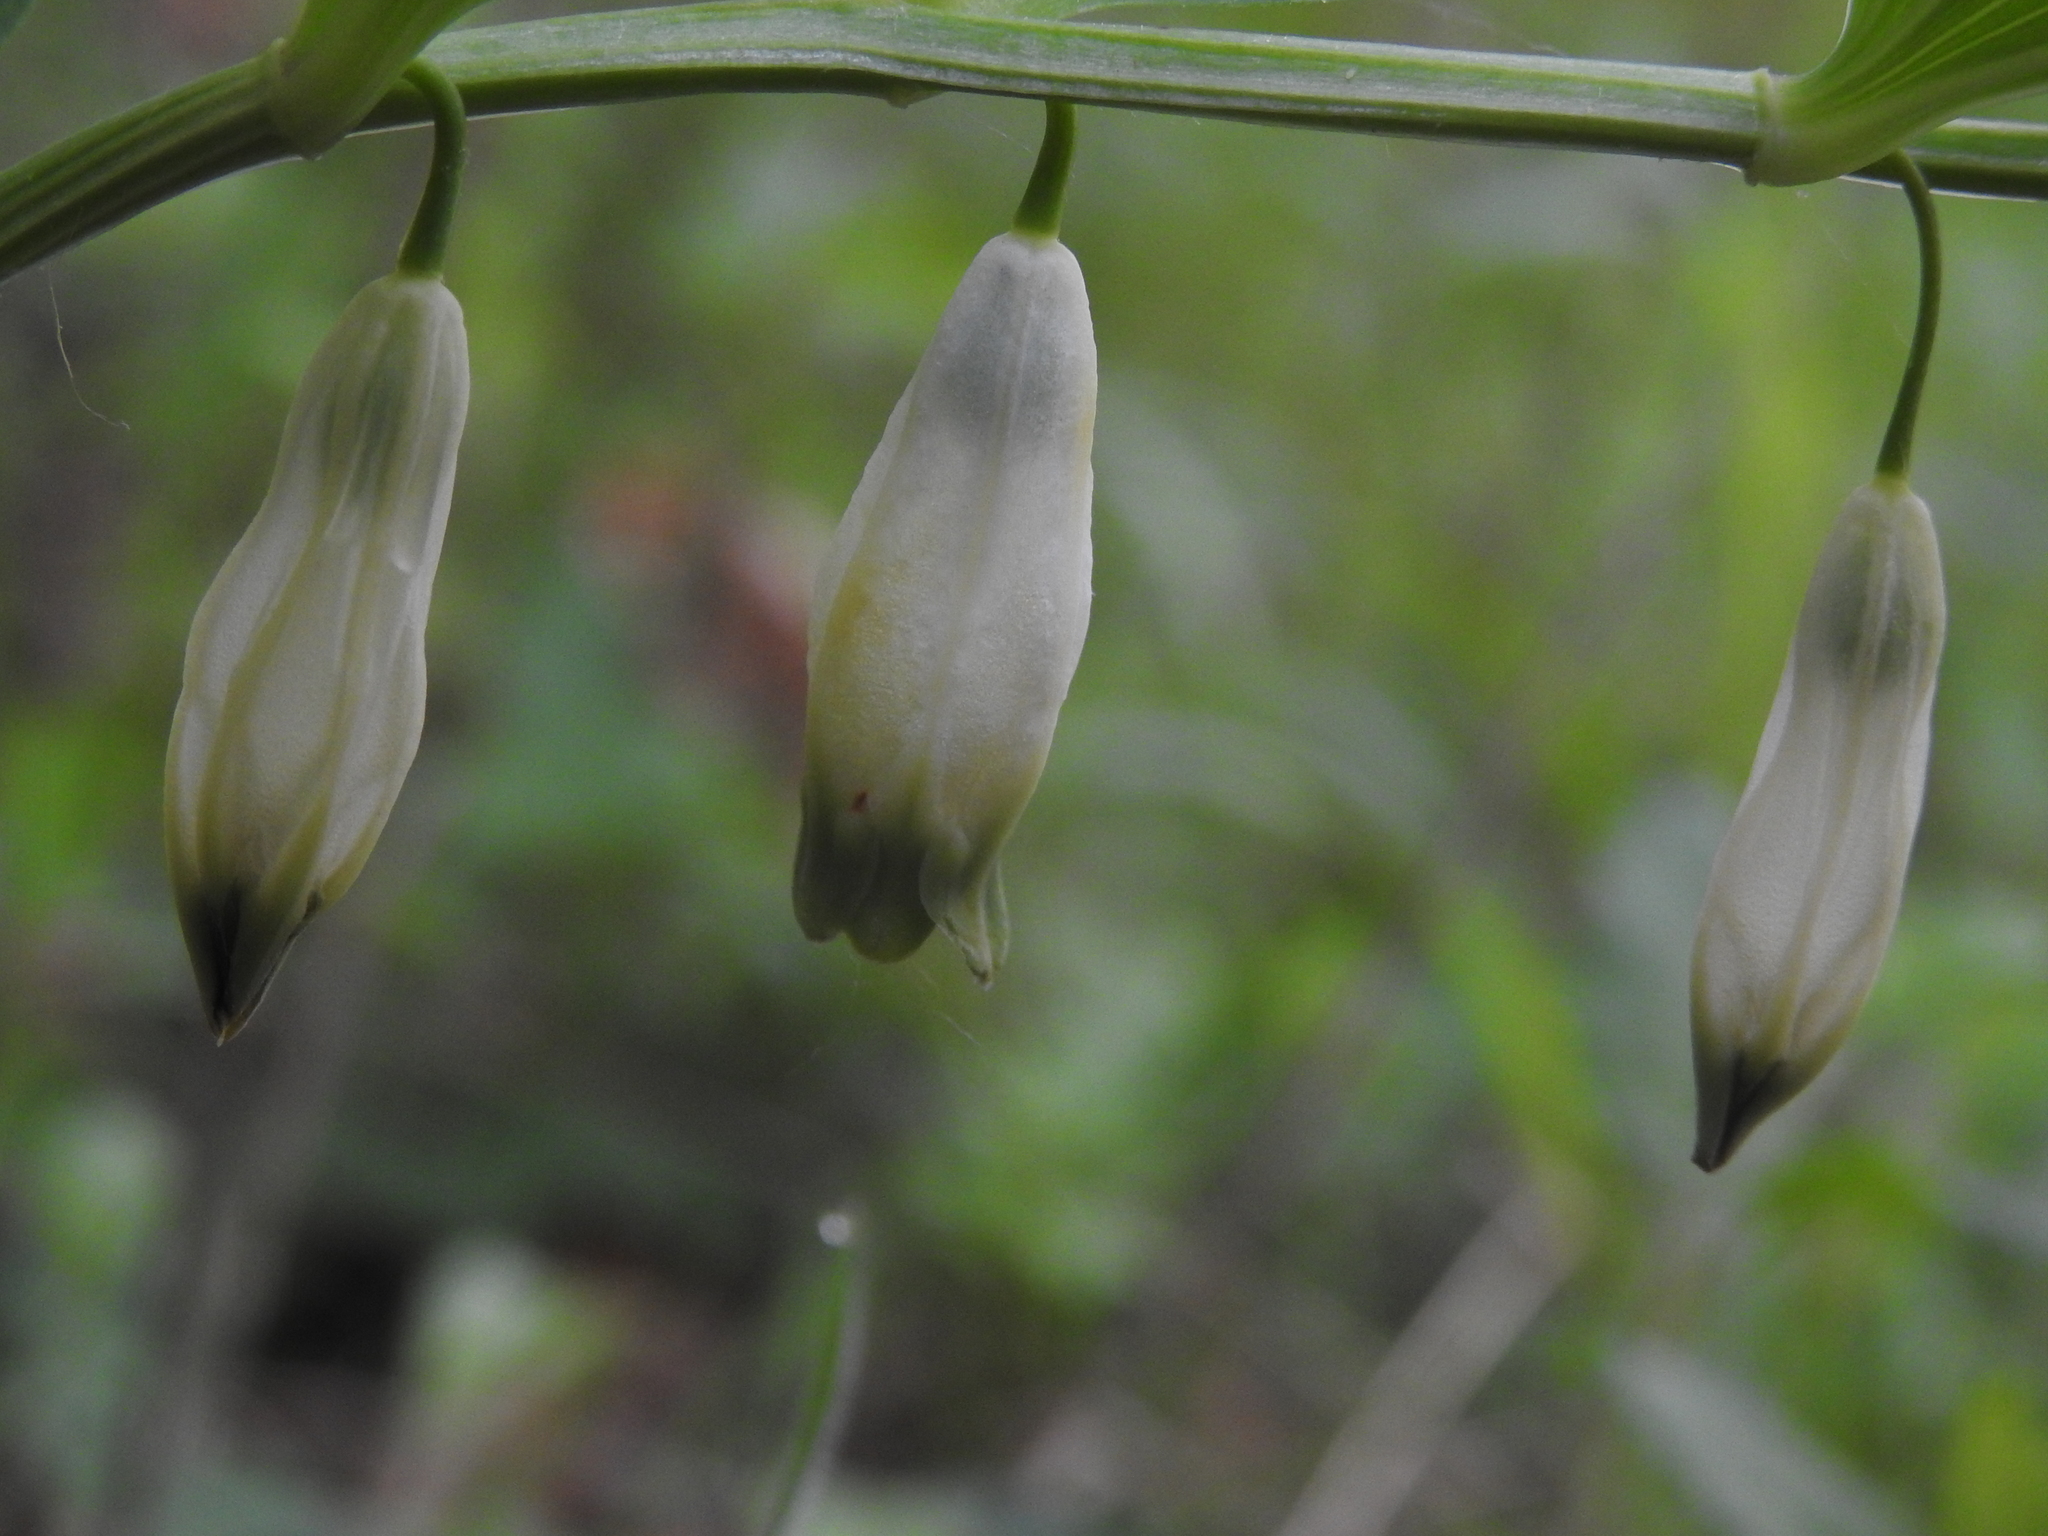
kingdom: Plantae
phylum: Tracheophyta
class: Liliopsida
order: Asparagales
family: Asparagaceae
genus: Polygonatum
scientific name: Polygonatum odoratum
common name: Angular solomon's-seal
